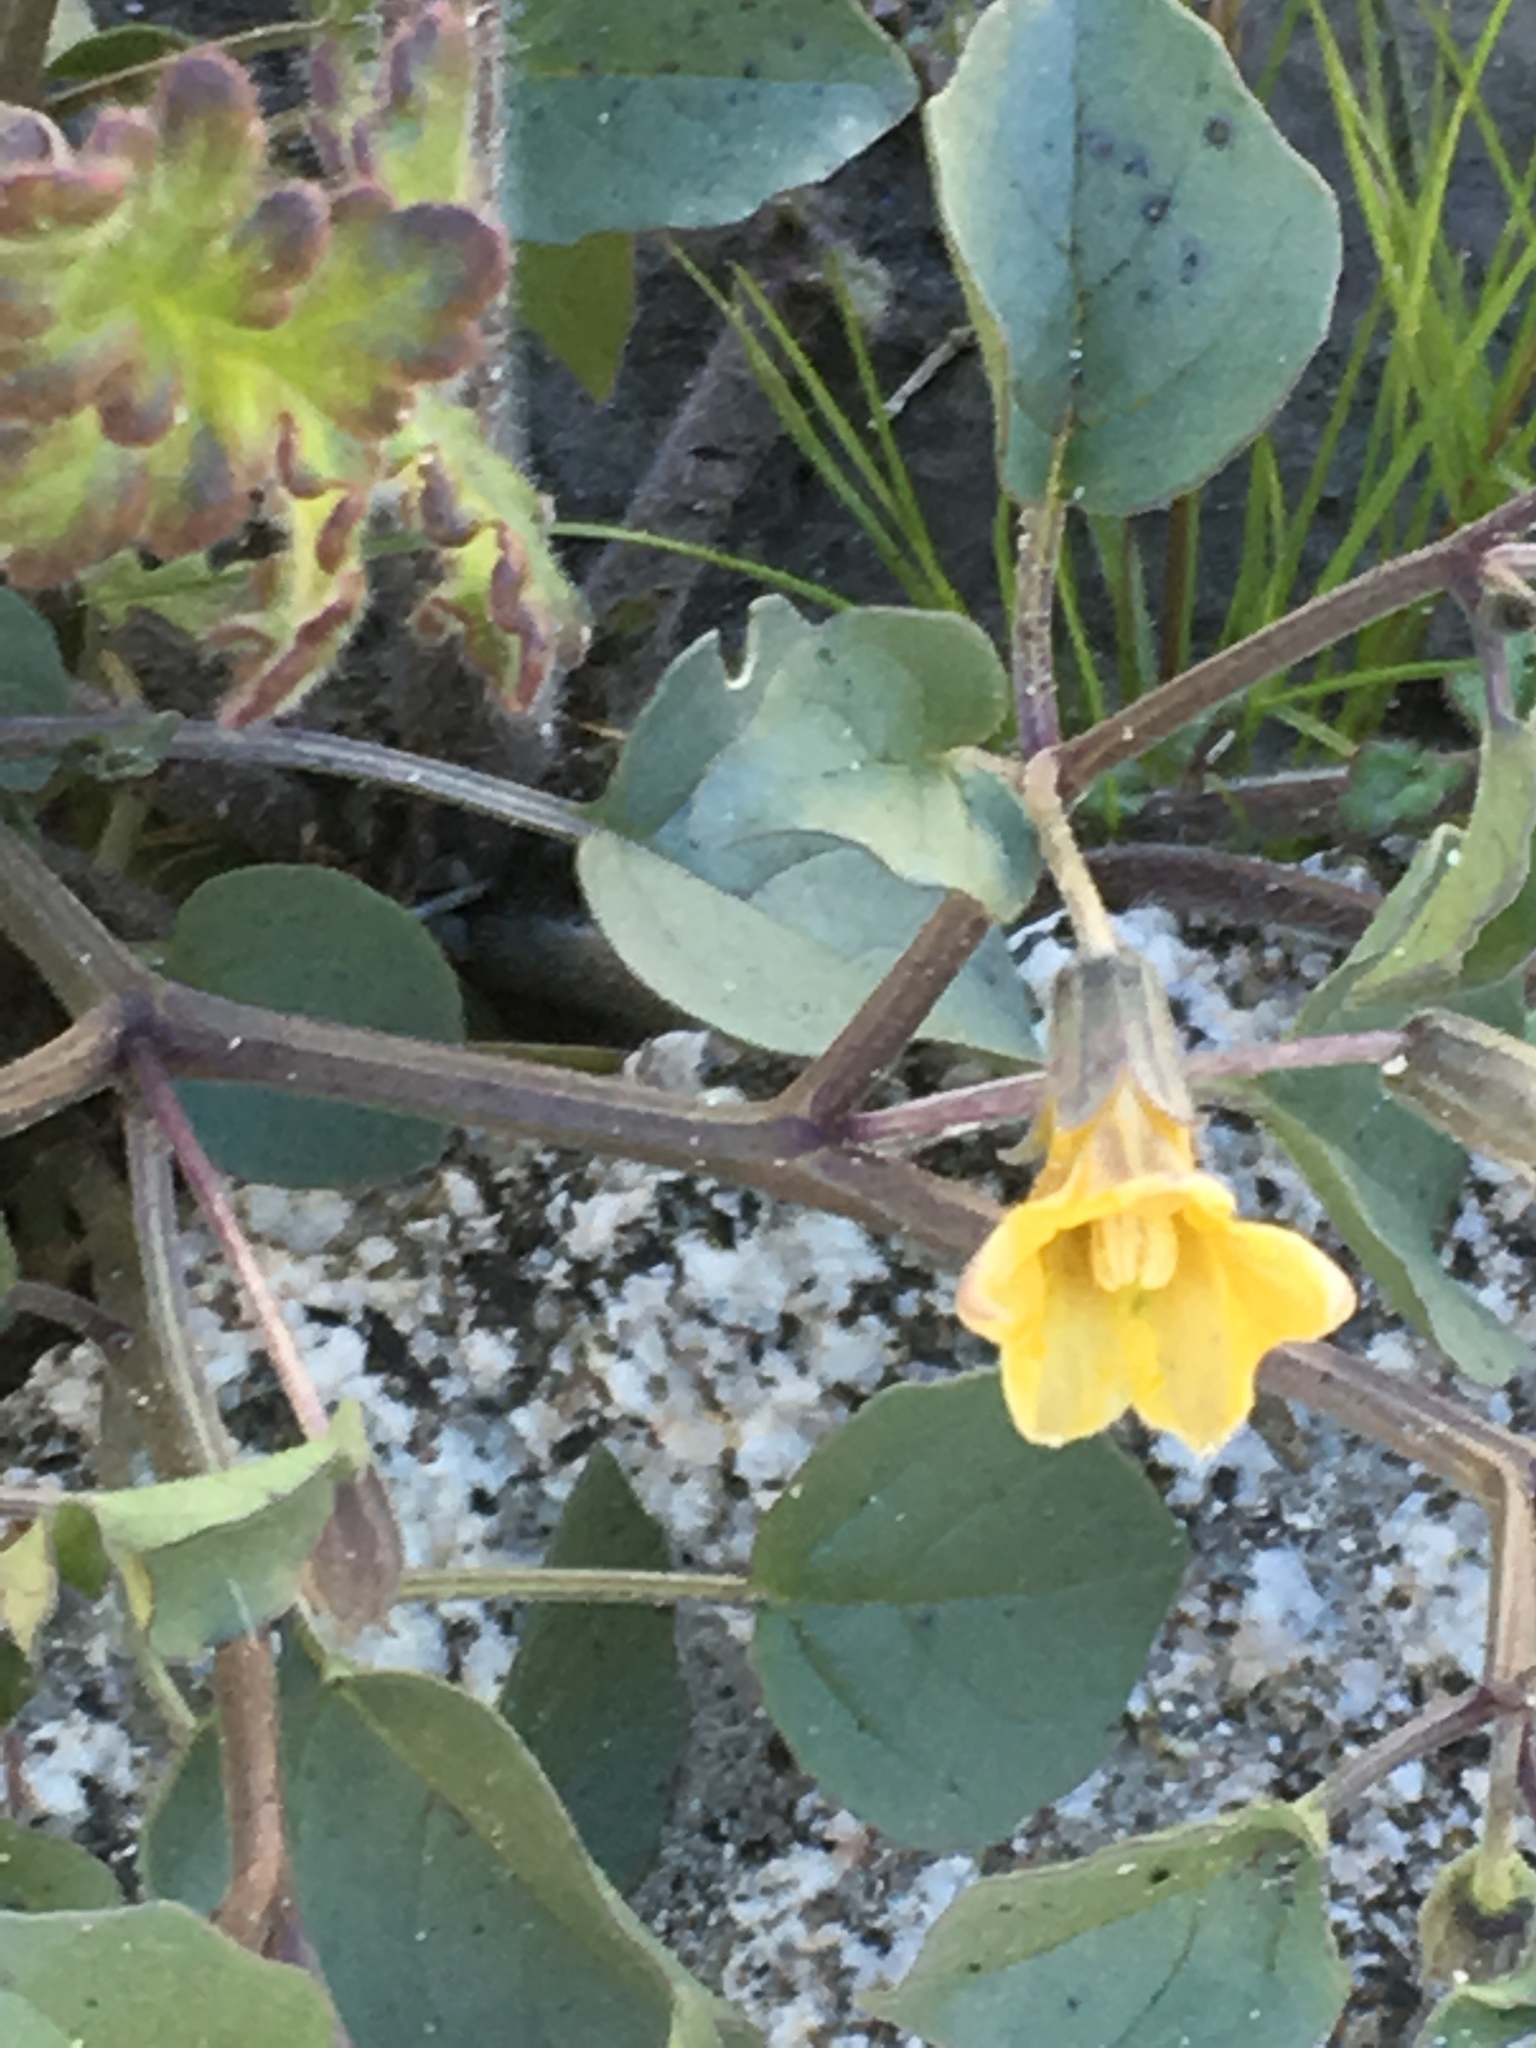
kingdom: Plantae
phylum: Tracheophyta
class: Magnoliopsida
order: Solanales
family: Solanaceae
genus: Physalis
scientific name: Physalis crassifolia
